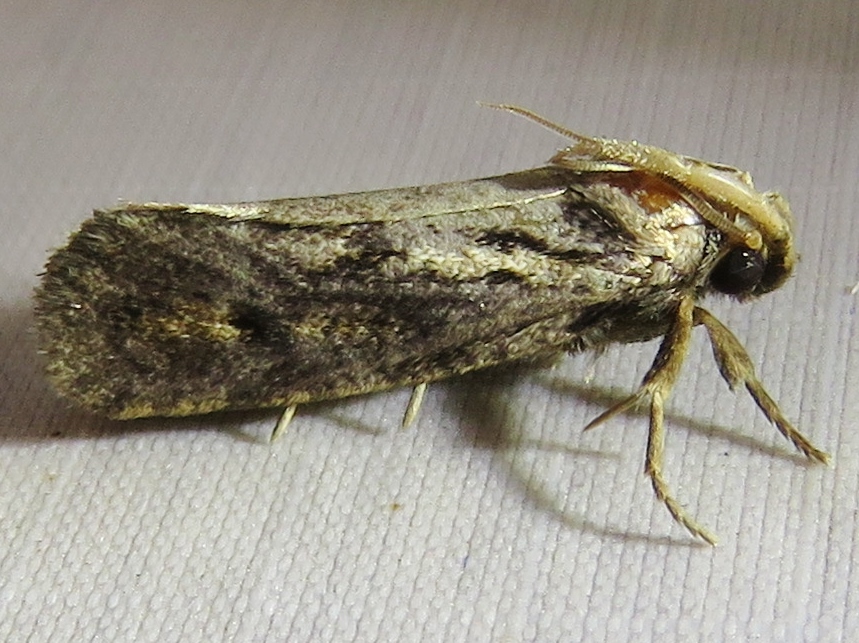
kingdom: Animalia
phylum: Arthropoda
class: Insecta
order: Lepidoptera
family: Tineidae
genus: Acrolophus
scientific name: Acrolophus popeanella
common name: Clemens' grass tubeworm moth
